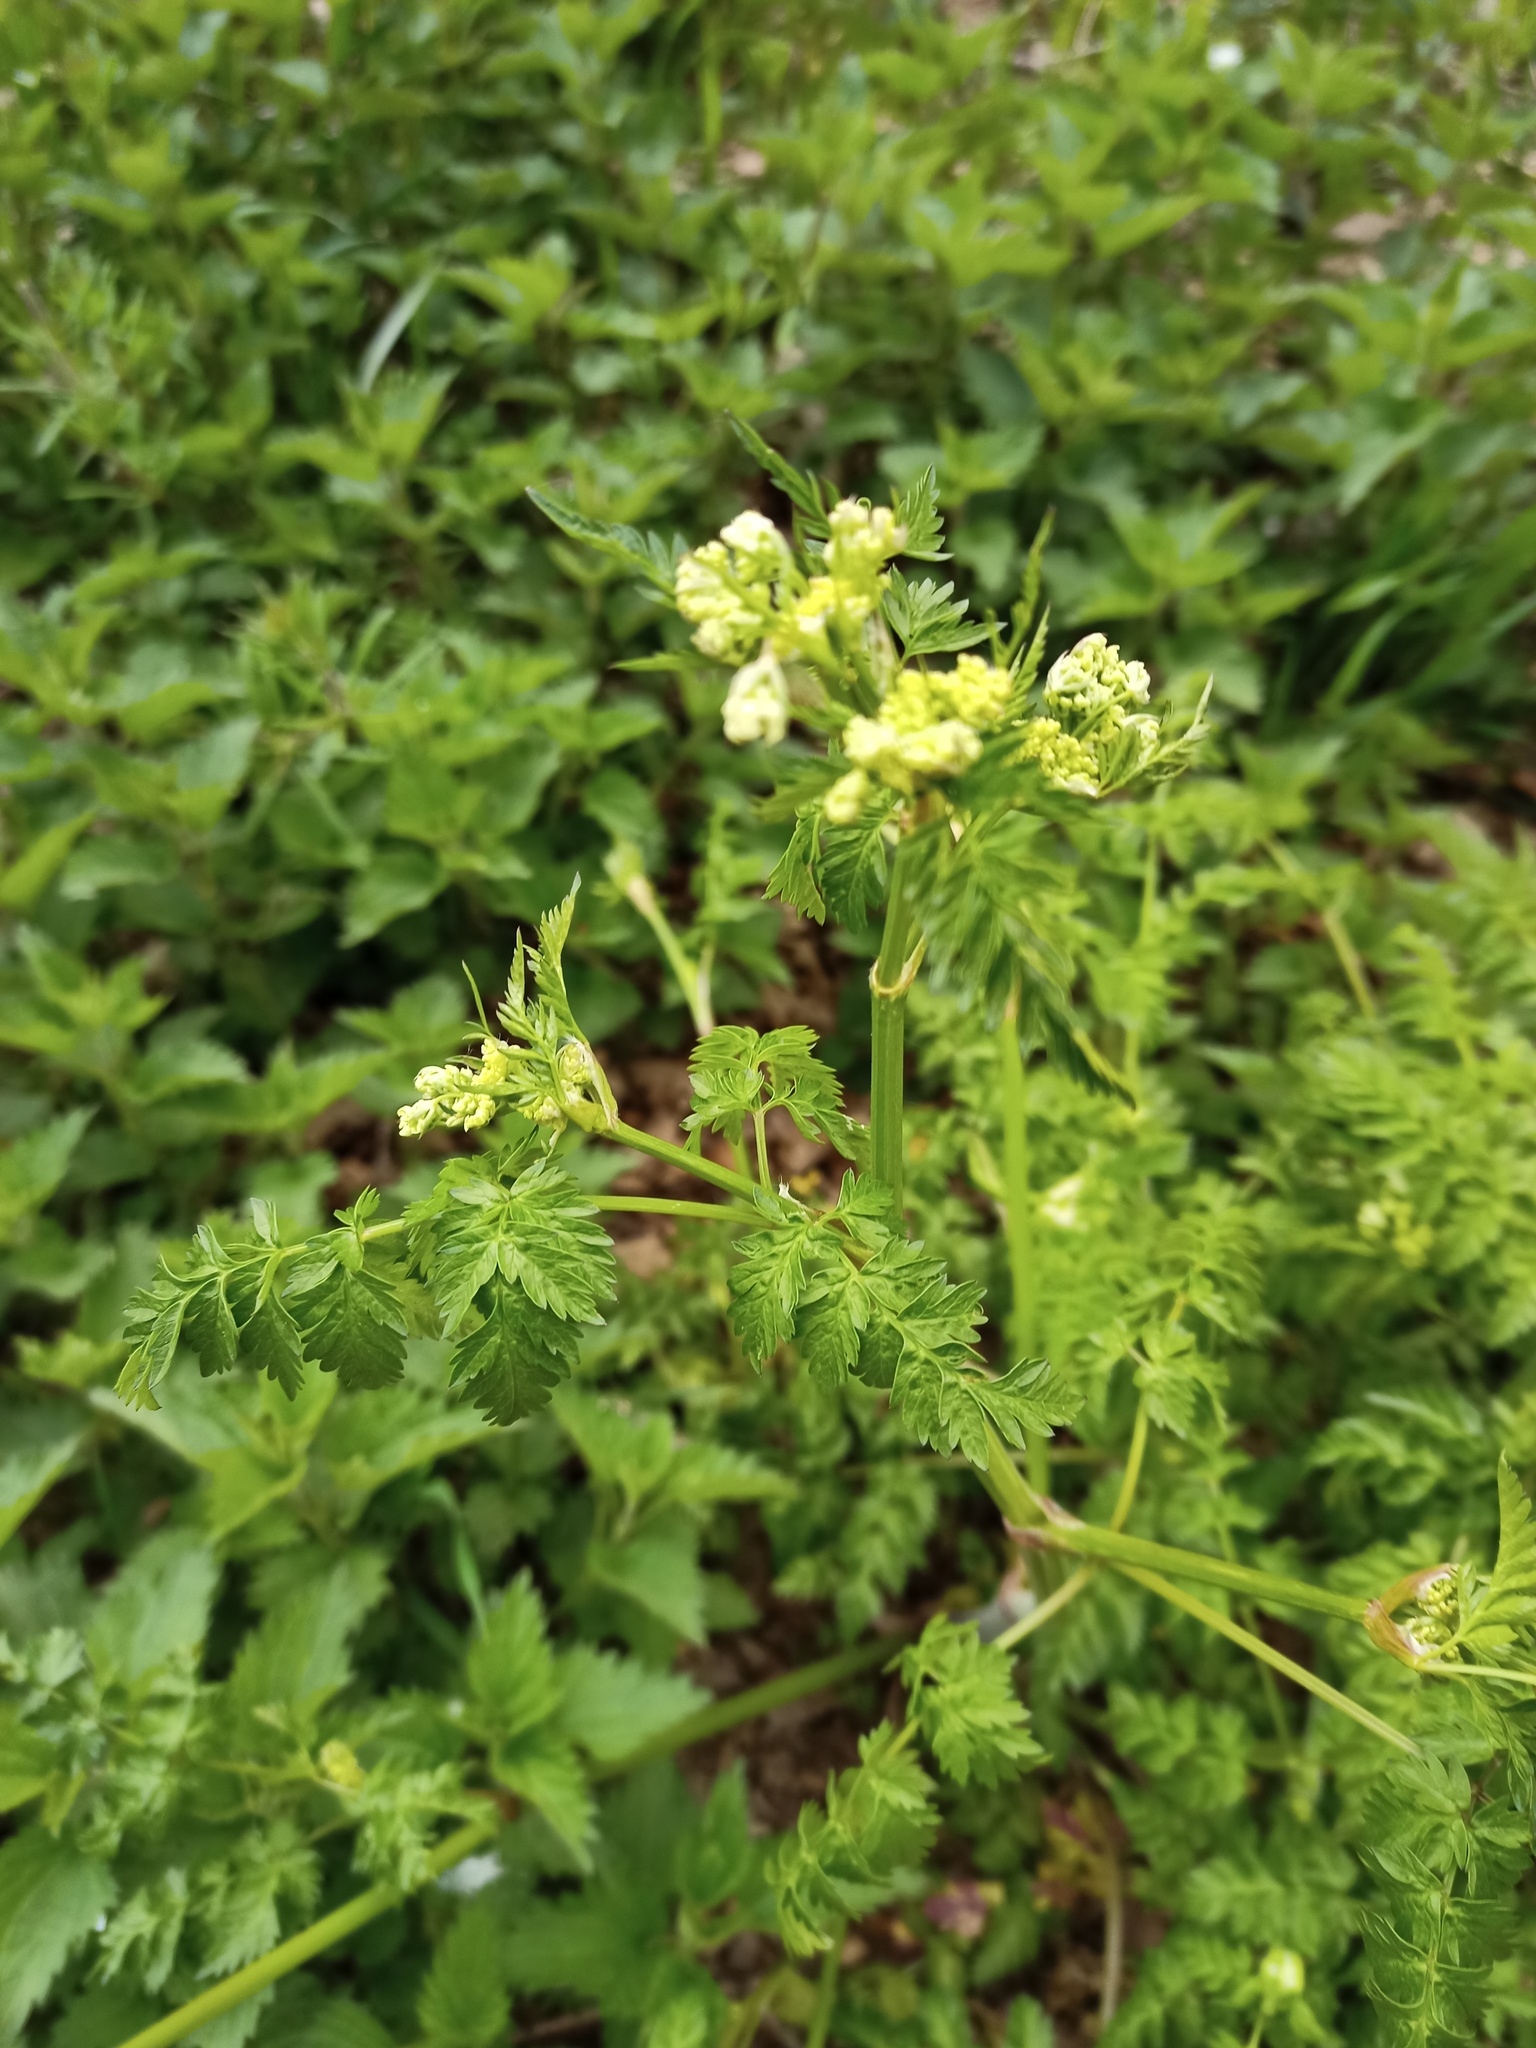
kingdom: Plantae
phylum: Tracheophyta
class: Magnoliopsida
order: Apiales
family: Apiaceae
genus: Anthriscus
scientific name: Anthriscus sylvestris
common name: Cow parsley
